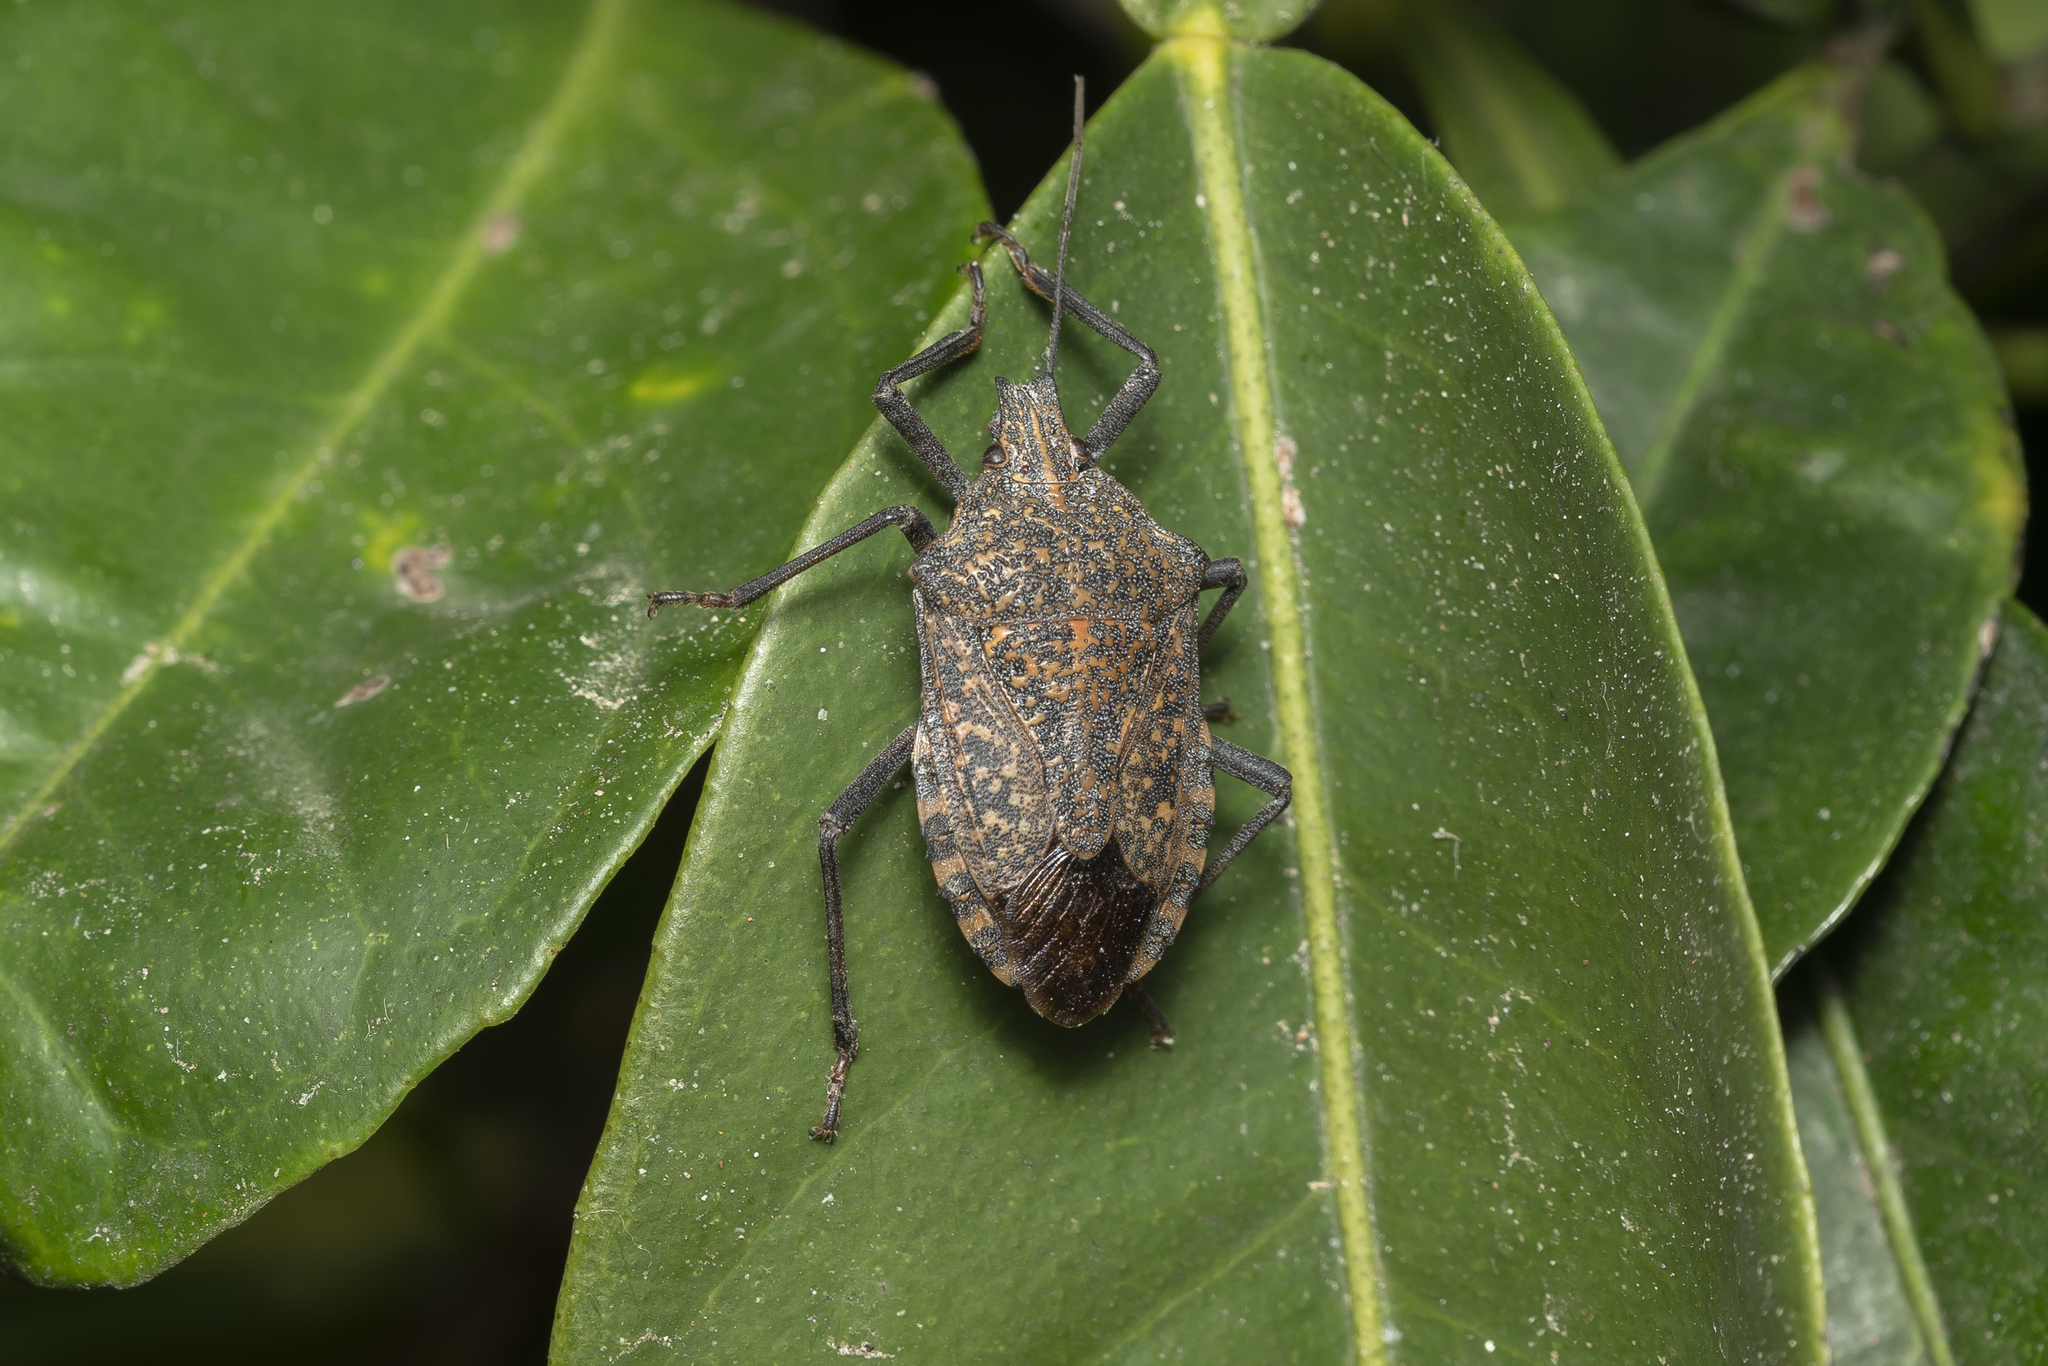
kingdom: Animalia
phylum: Arthropoda
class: Insecta
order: Hemiptera
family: Pentatomidae
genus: Apodiphus
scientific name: Apodiphus amygdali
